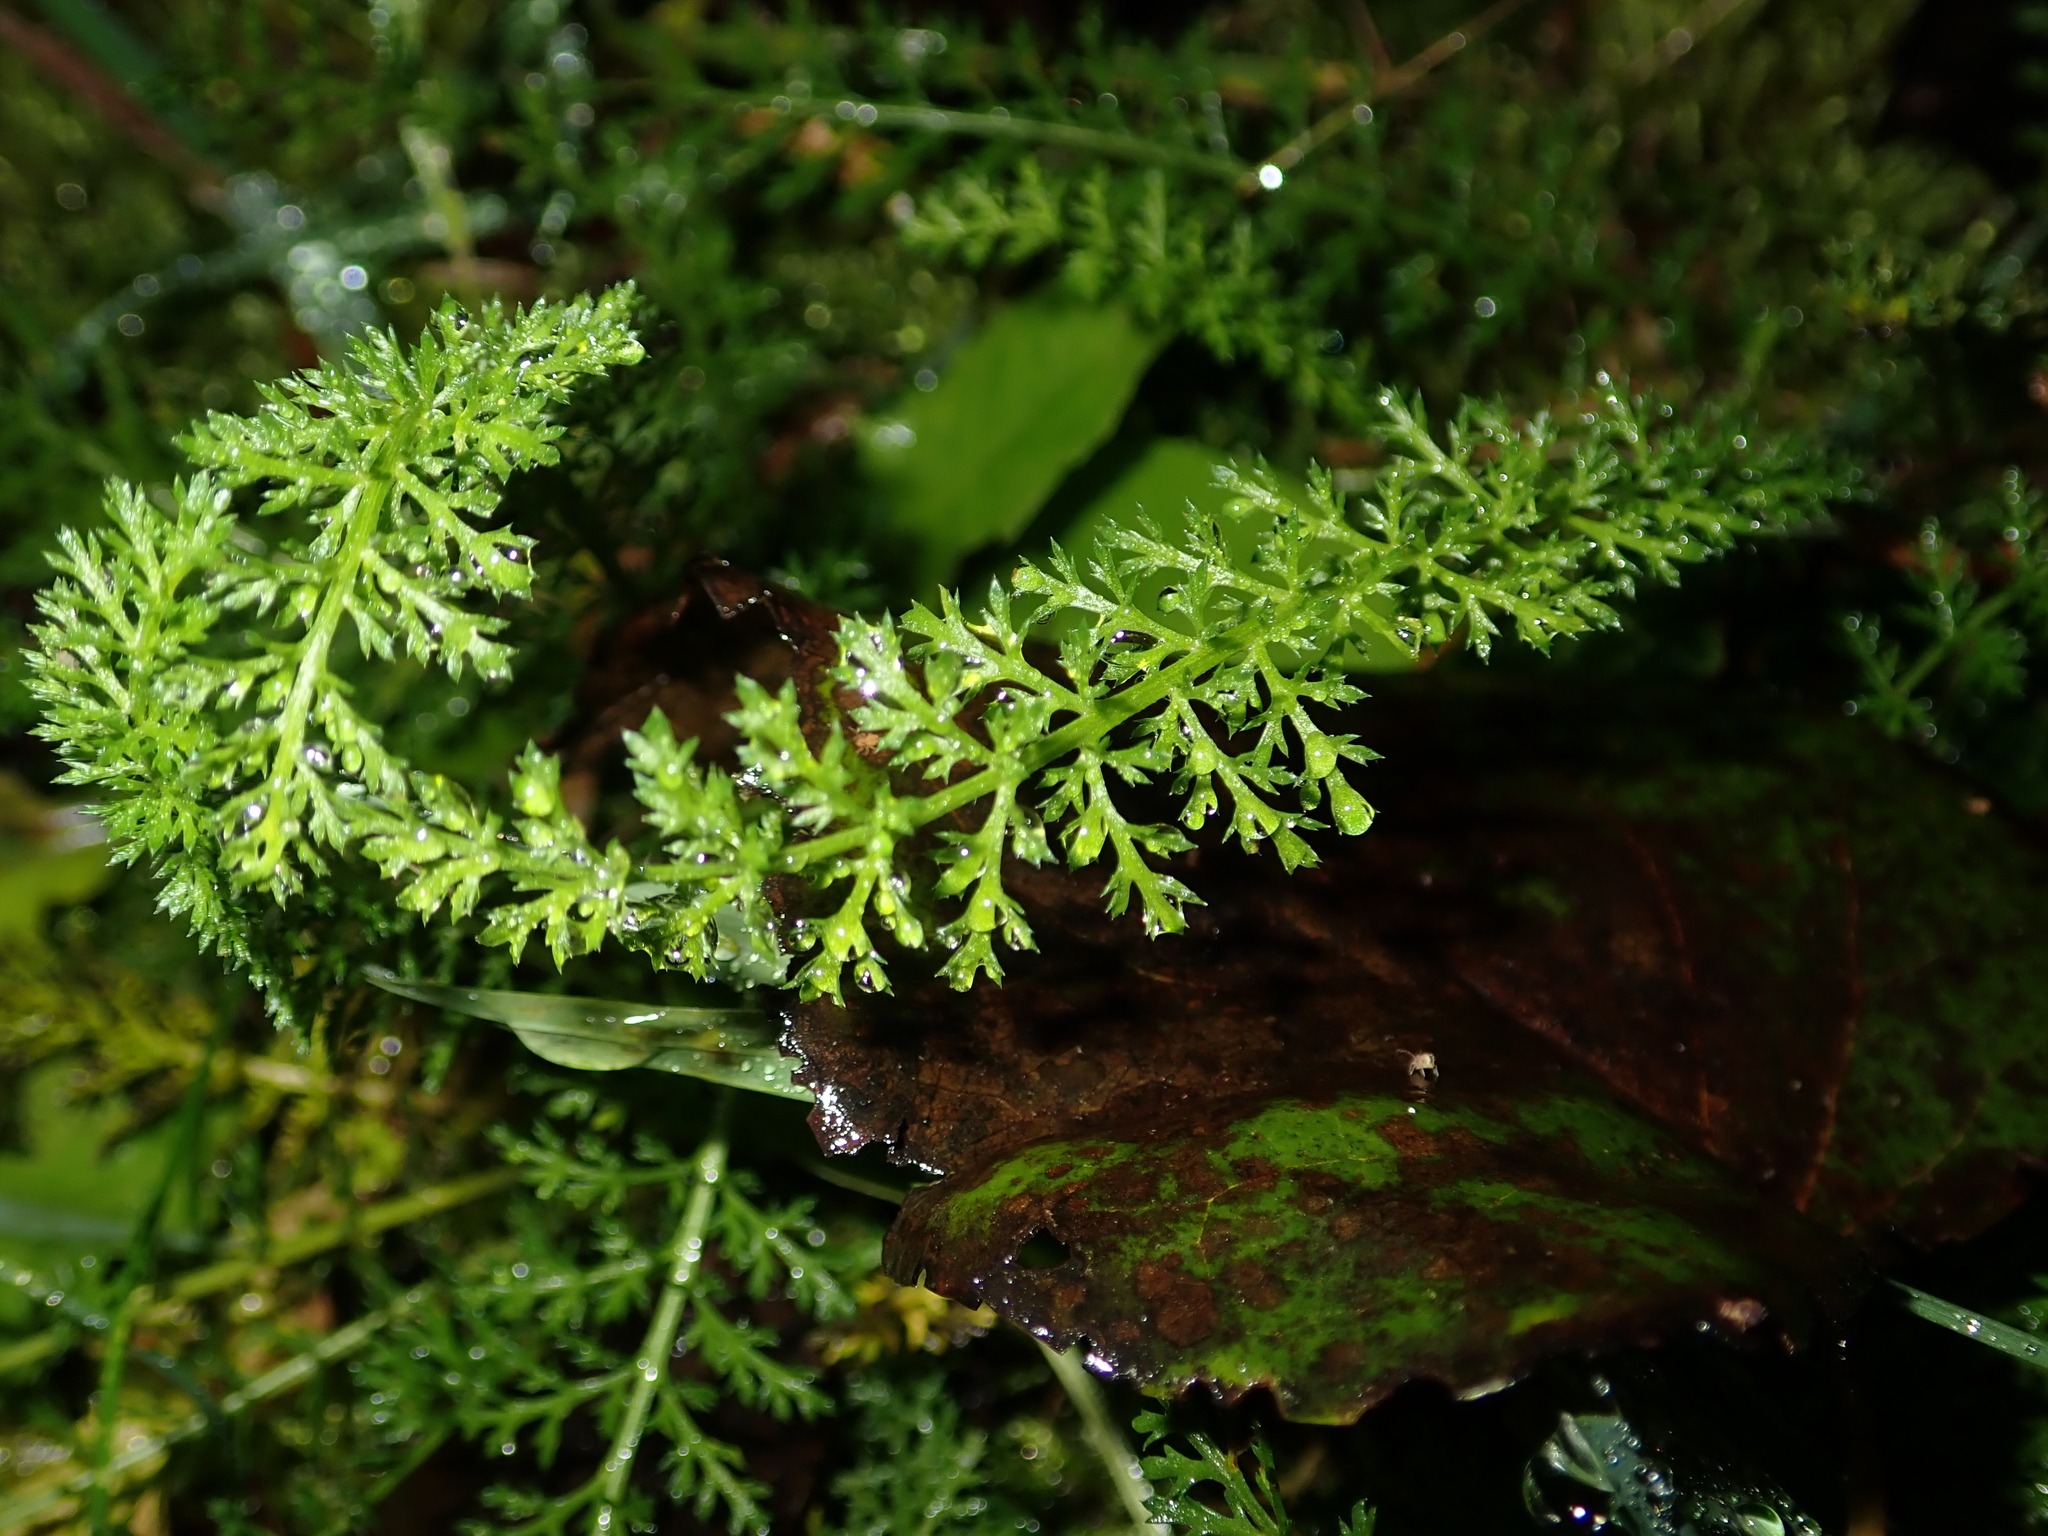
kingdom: Plantae
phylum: Tracheophyta
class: Magnoliopsida
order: Asterales
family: Asteraceae
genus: Achillea
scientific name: Achillea millefolium
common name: Yarrow
